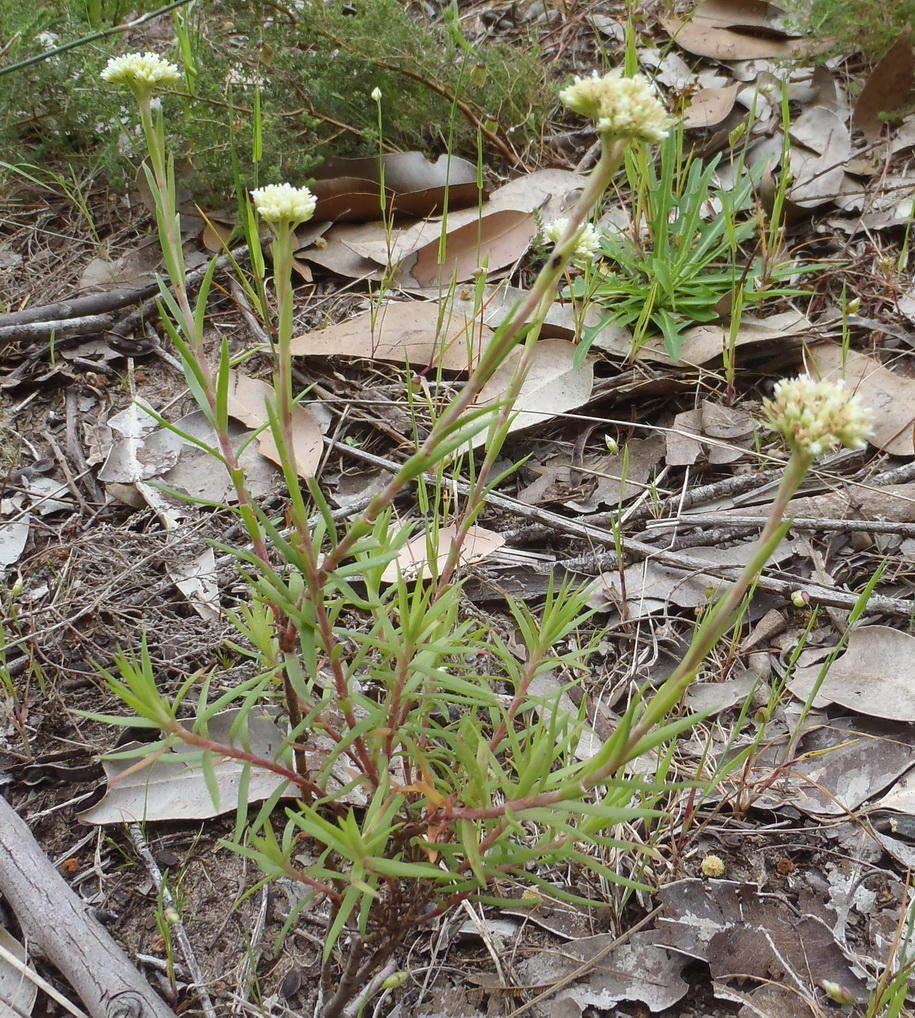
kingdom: Plantae
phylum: Tracheophyta
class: Magnoliopsida
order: Saxifragales
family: Crassulaceae
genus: Crassula
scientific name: Crassula subulata
